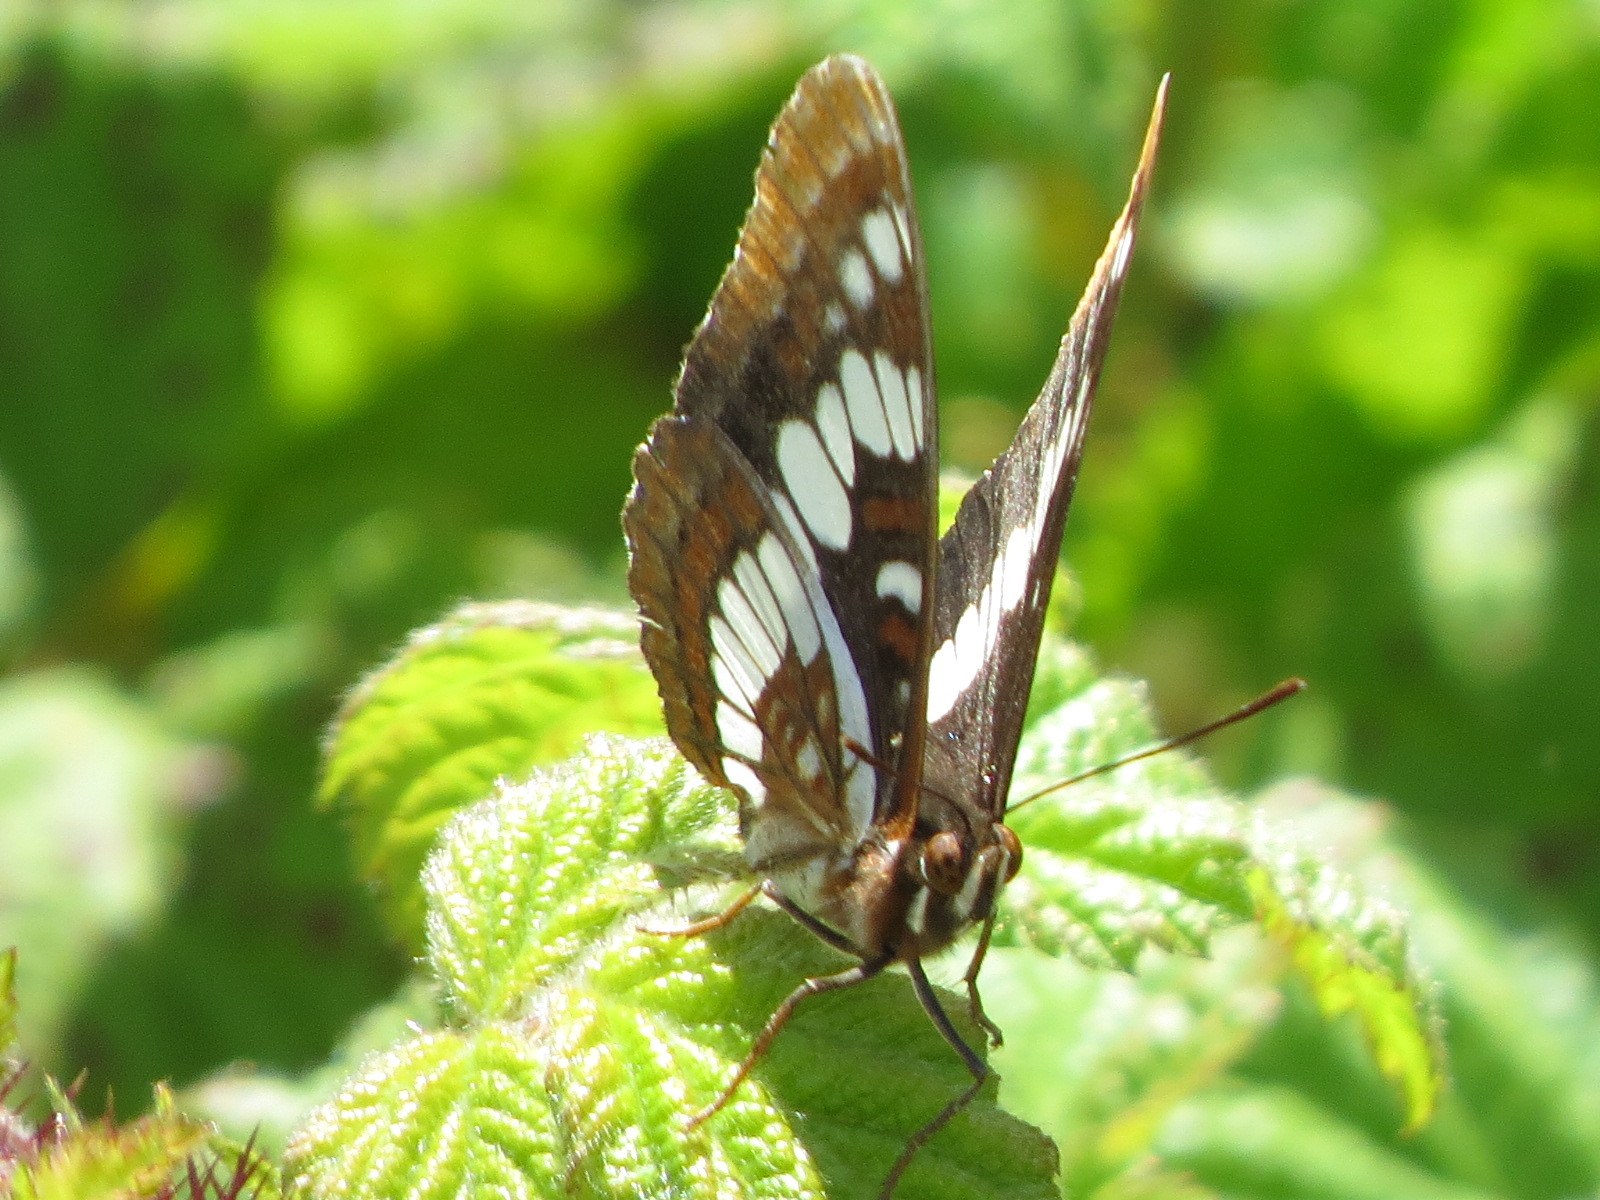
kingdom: Animalia
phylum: Arthropoda
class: Insecta
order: Lepidoptera
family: Nymphalidae
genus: Limenitis
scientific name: Limenitis lorquini
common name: Lorquin's admiral
